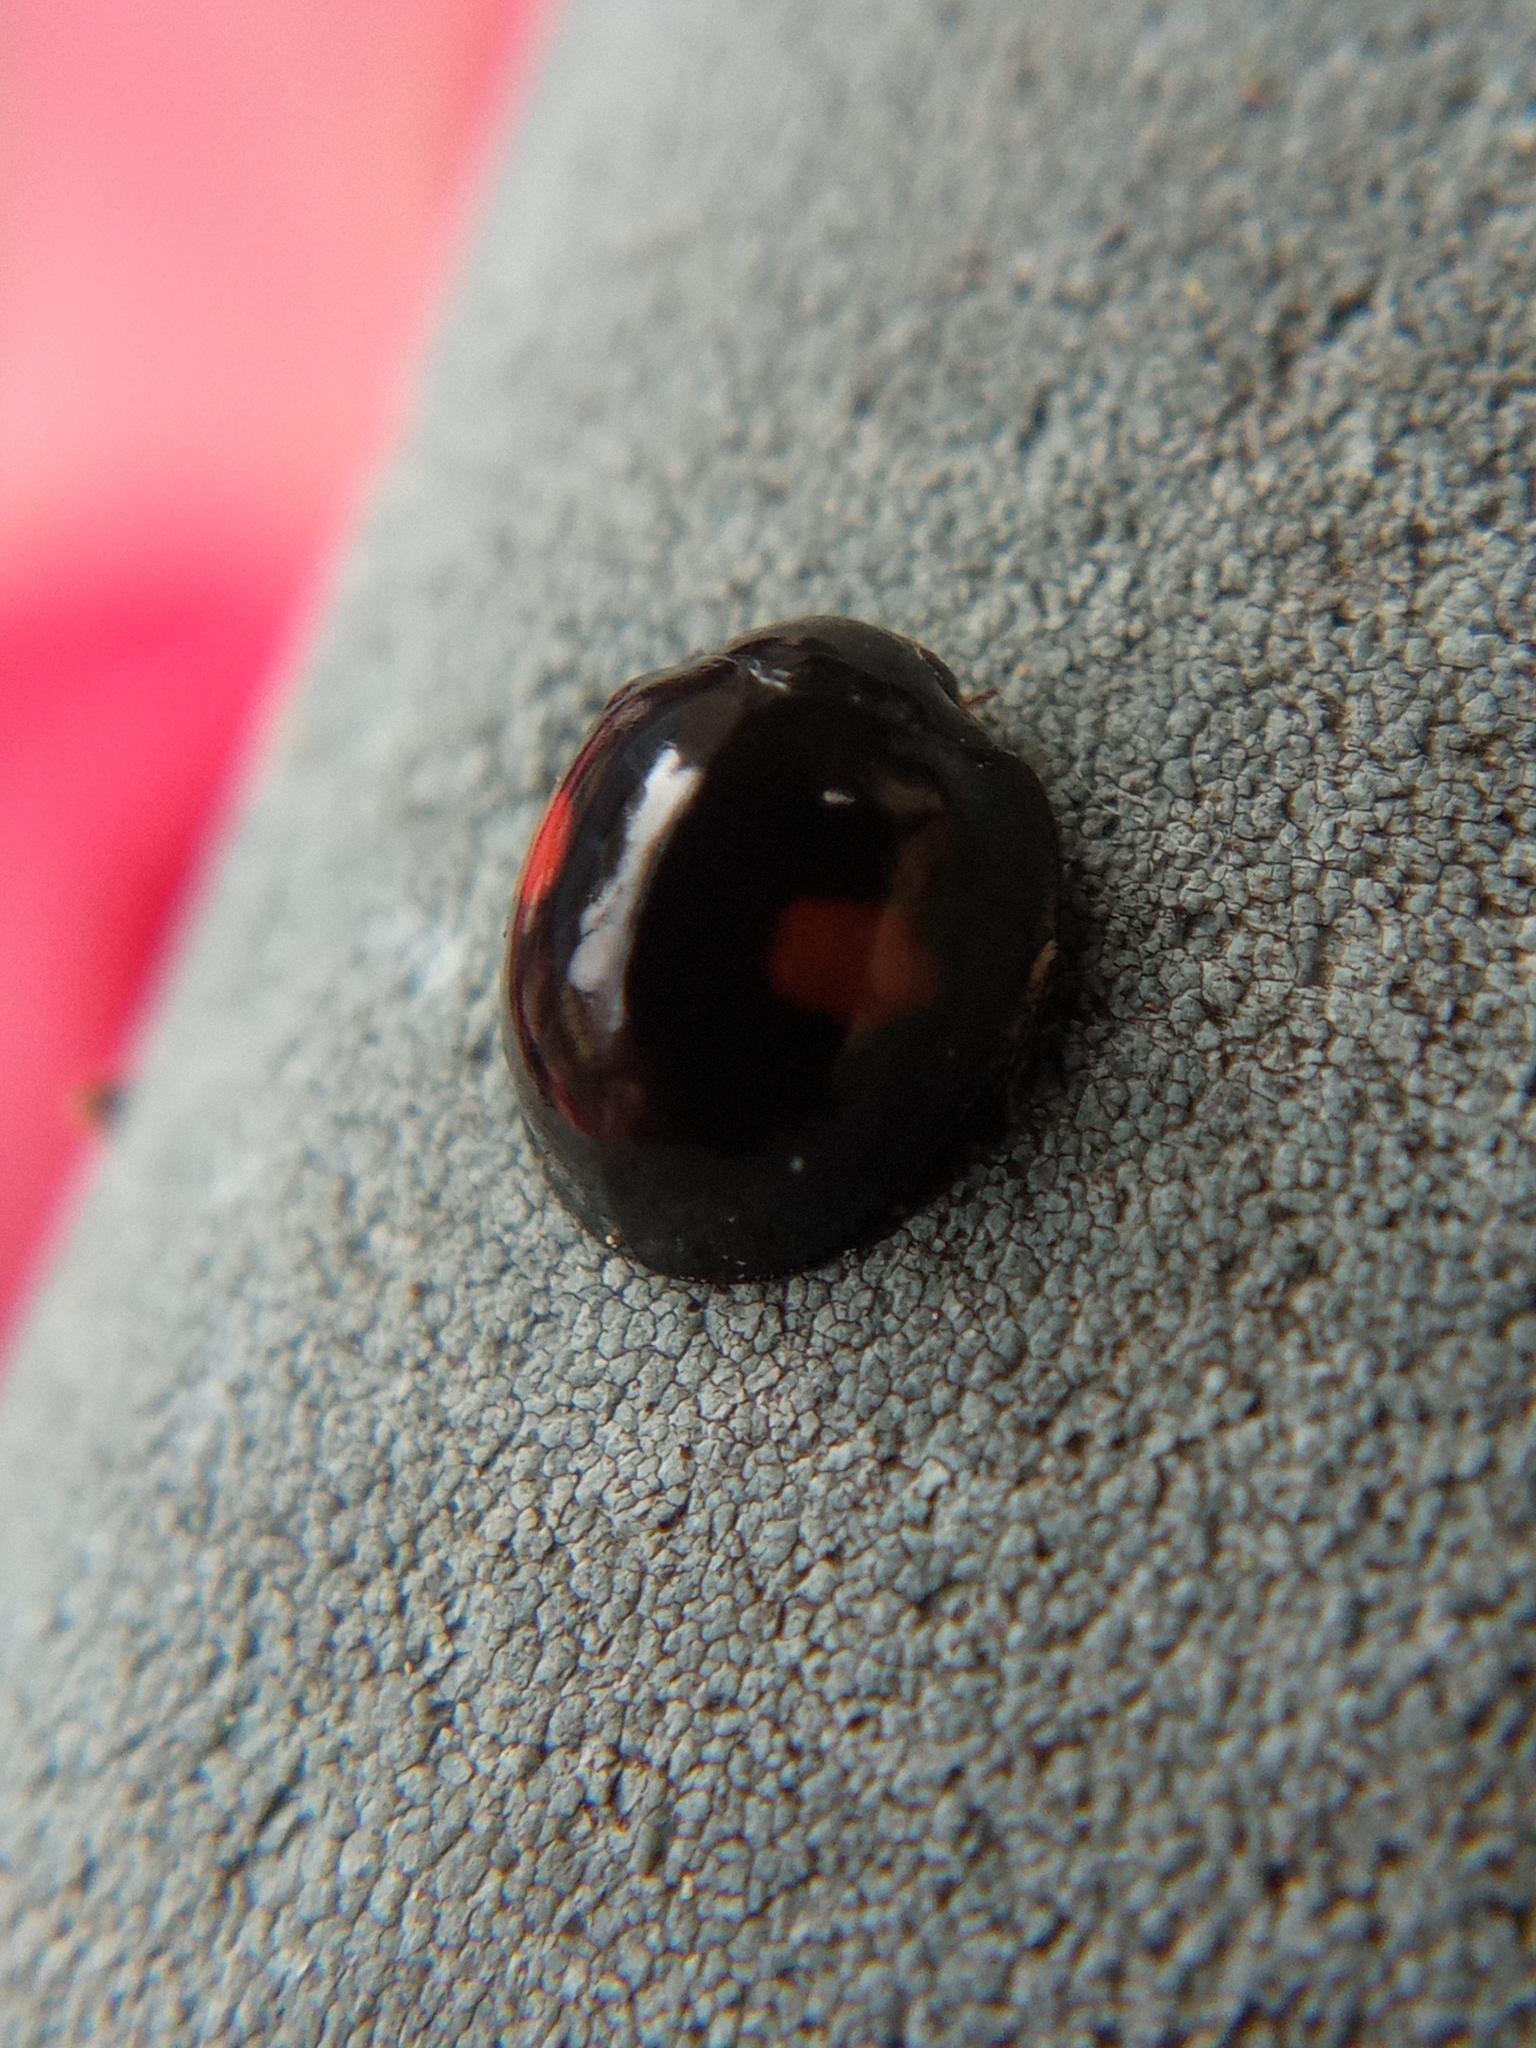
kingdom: Animalia
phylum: Arthropoda
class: Insecta
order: Coleoptera
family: Coccinellidae
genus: Chilocorus
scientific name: Chilocorus renipustulatus
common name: Kidney-spot ladybird
